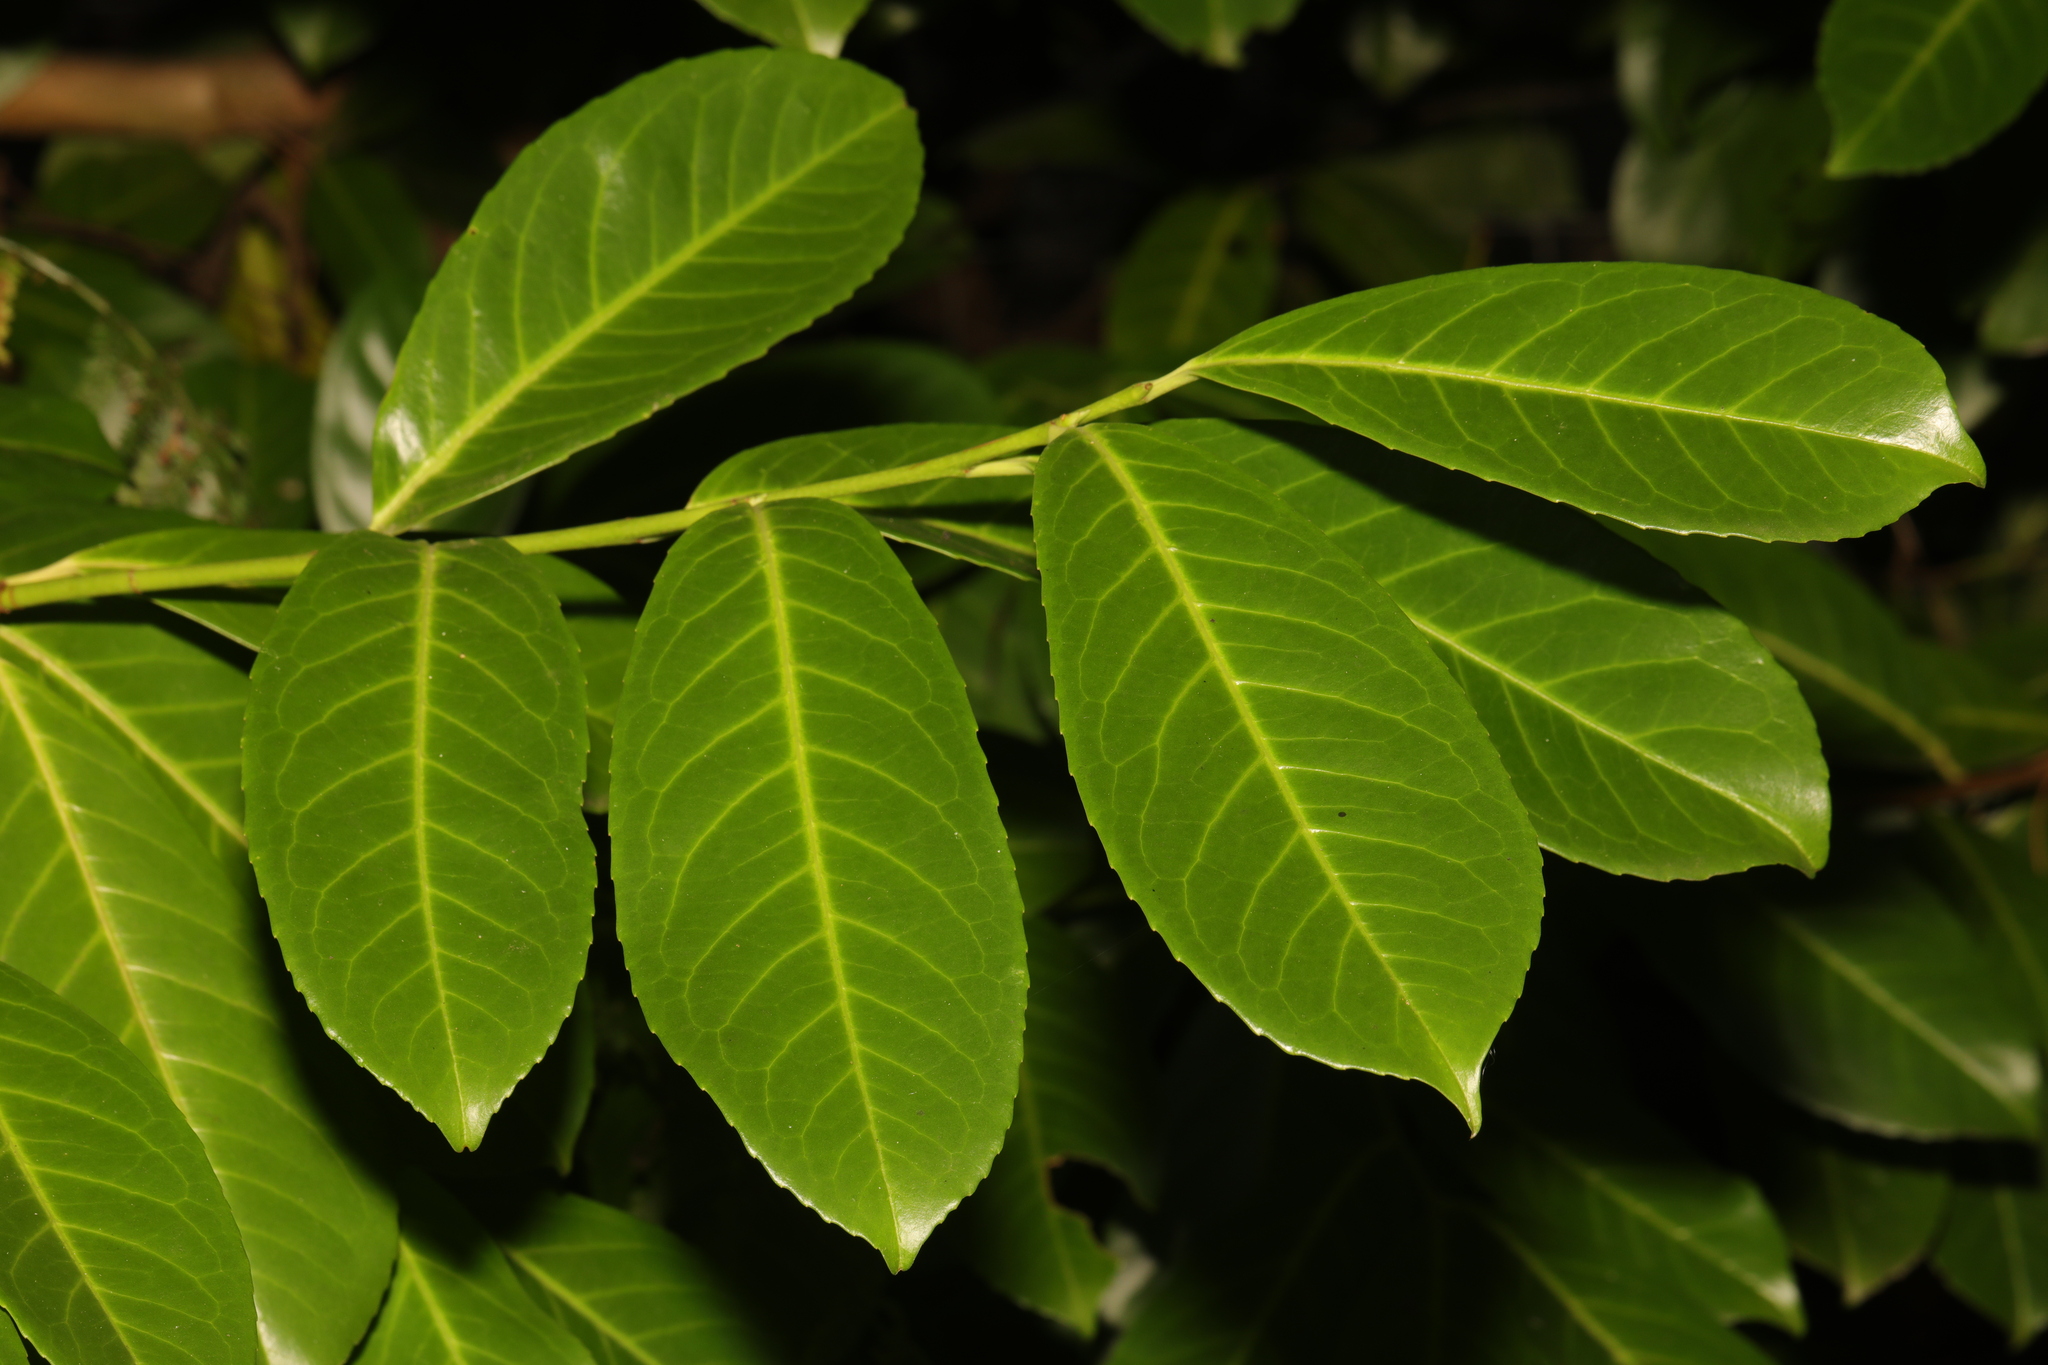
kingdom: Plantae
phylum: Tracheophyta
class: Magnoliopsida
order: Rosales
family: Rosaceae
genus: Prunus
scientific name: Prunus laurocerasus
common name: Cherry laurel
